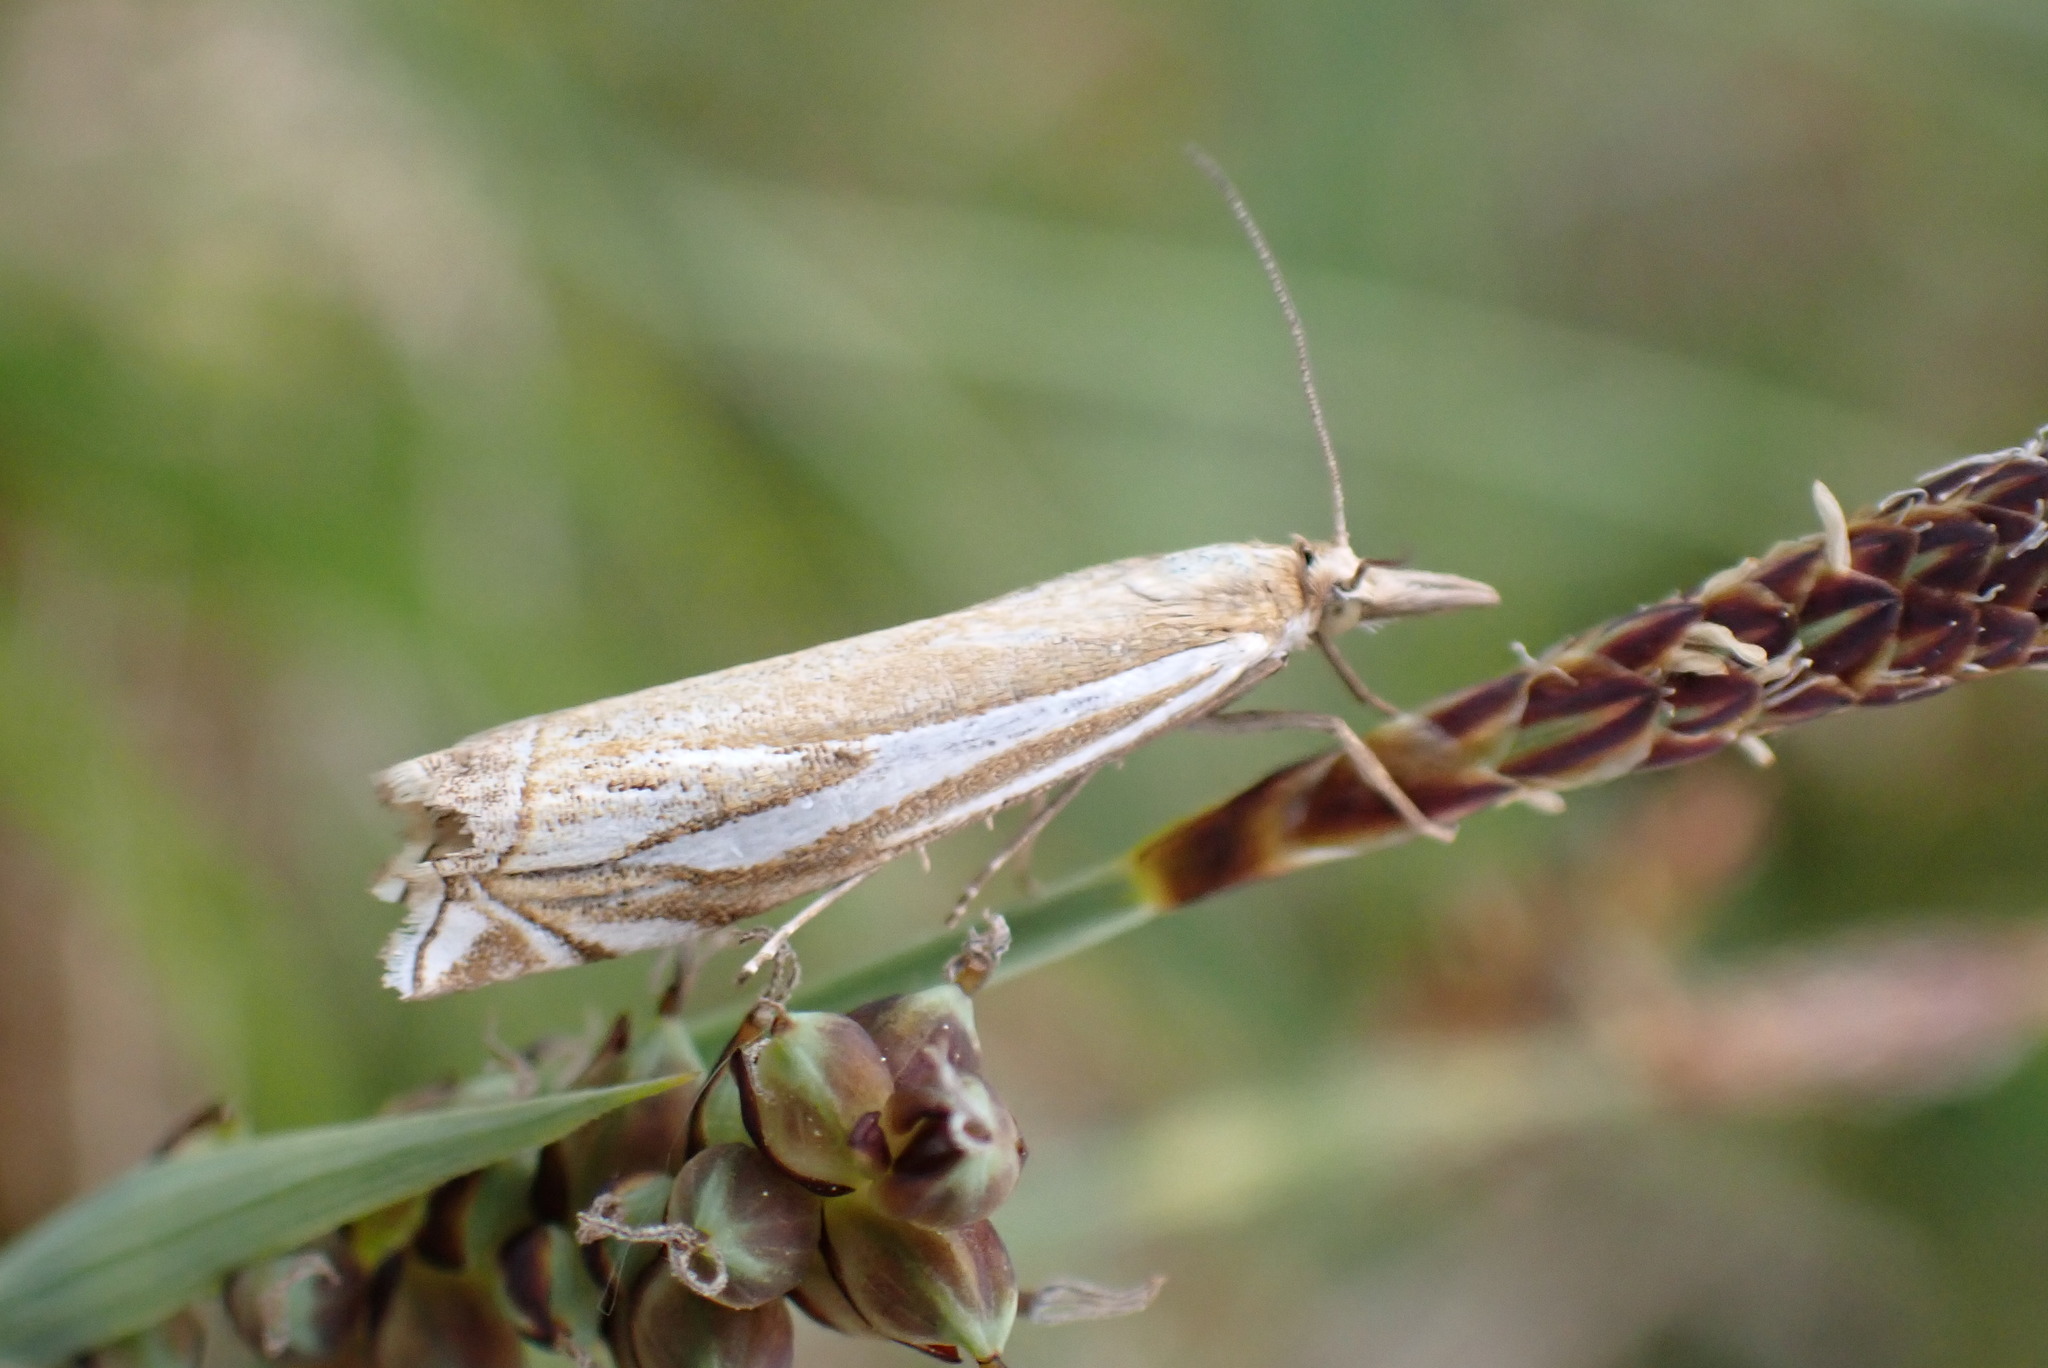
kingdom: Animalia
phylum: Arthropoda
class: Insecta
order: Lepidoptera
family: Crambidae
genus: Crambus
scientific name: Crambus pratella
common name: Scarce grass-veneer
